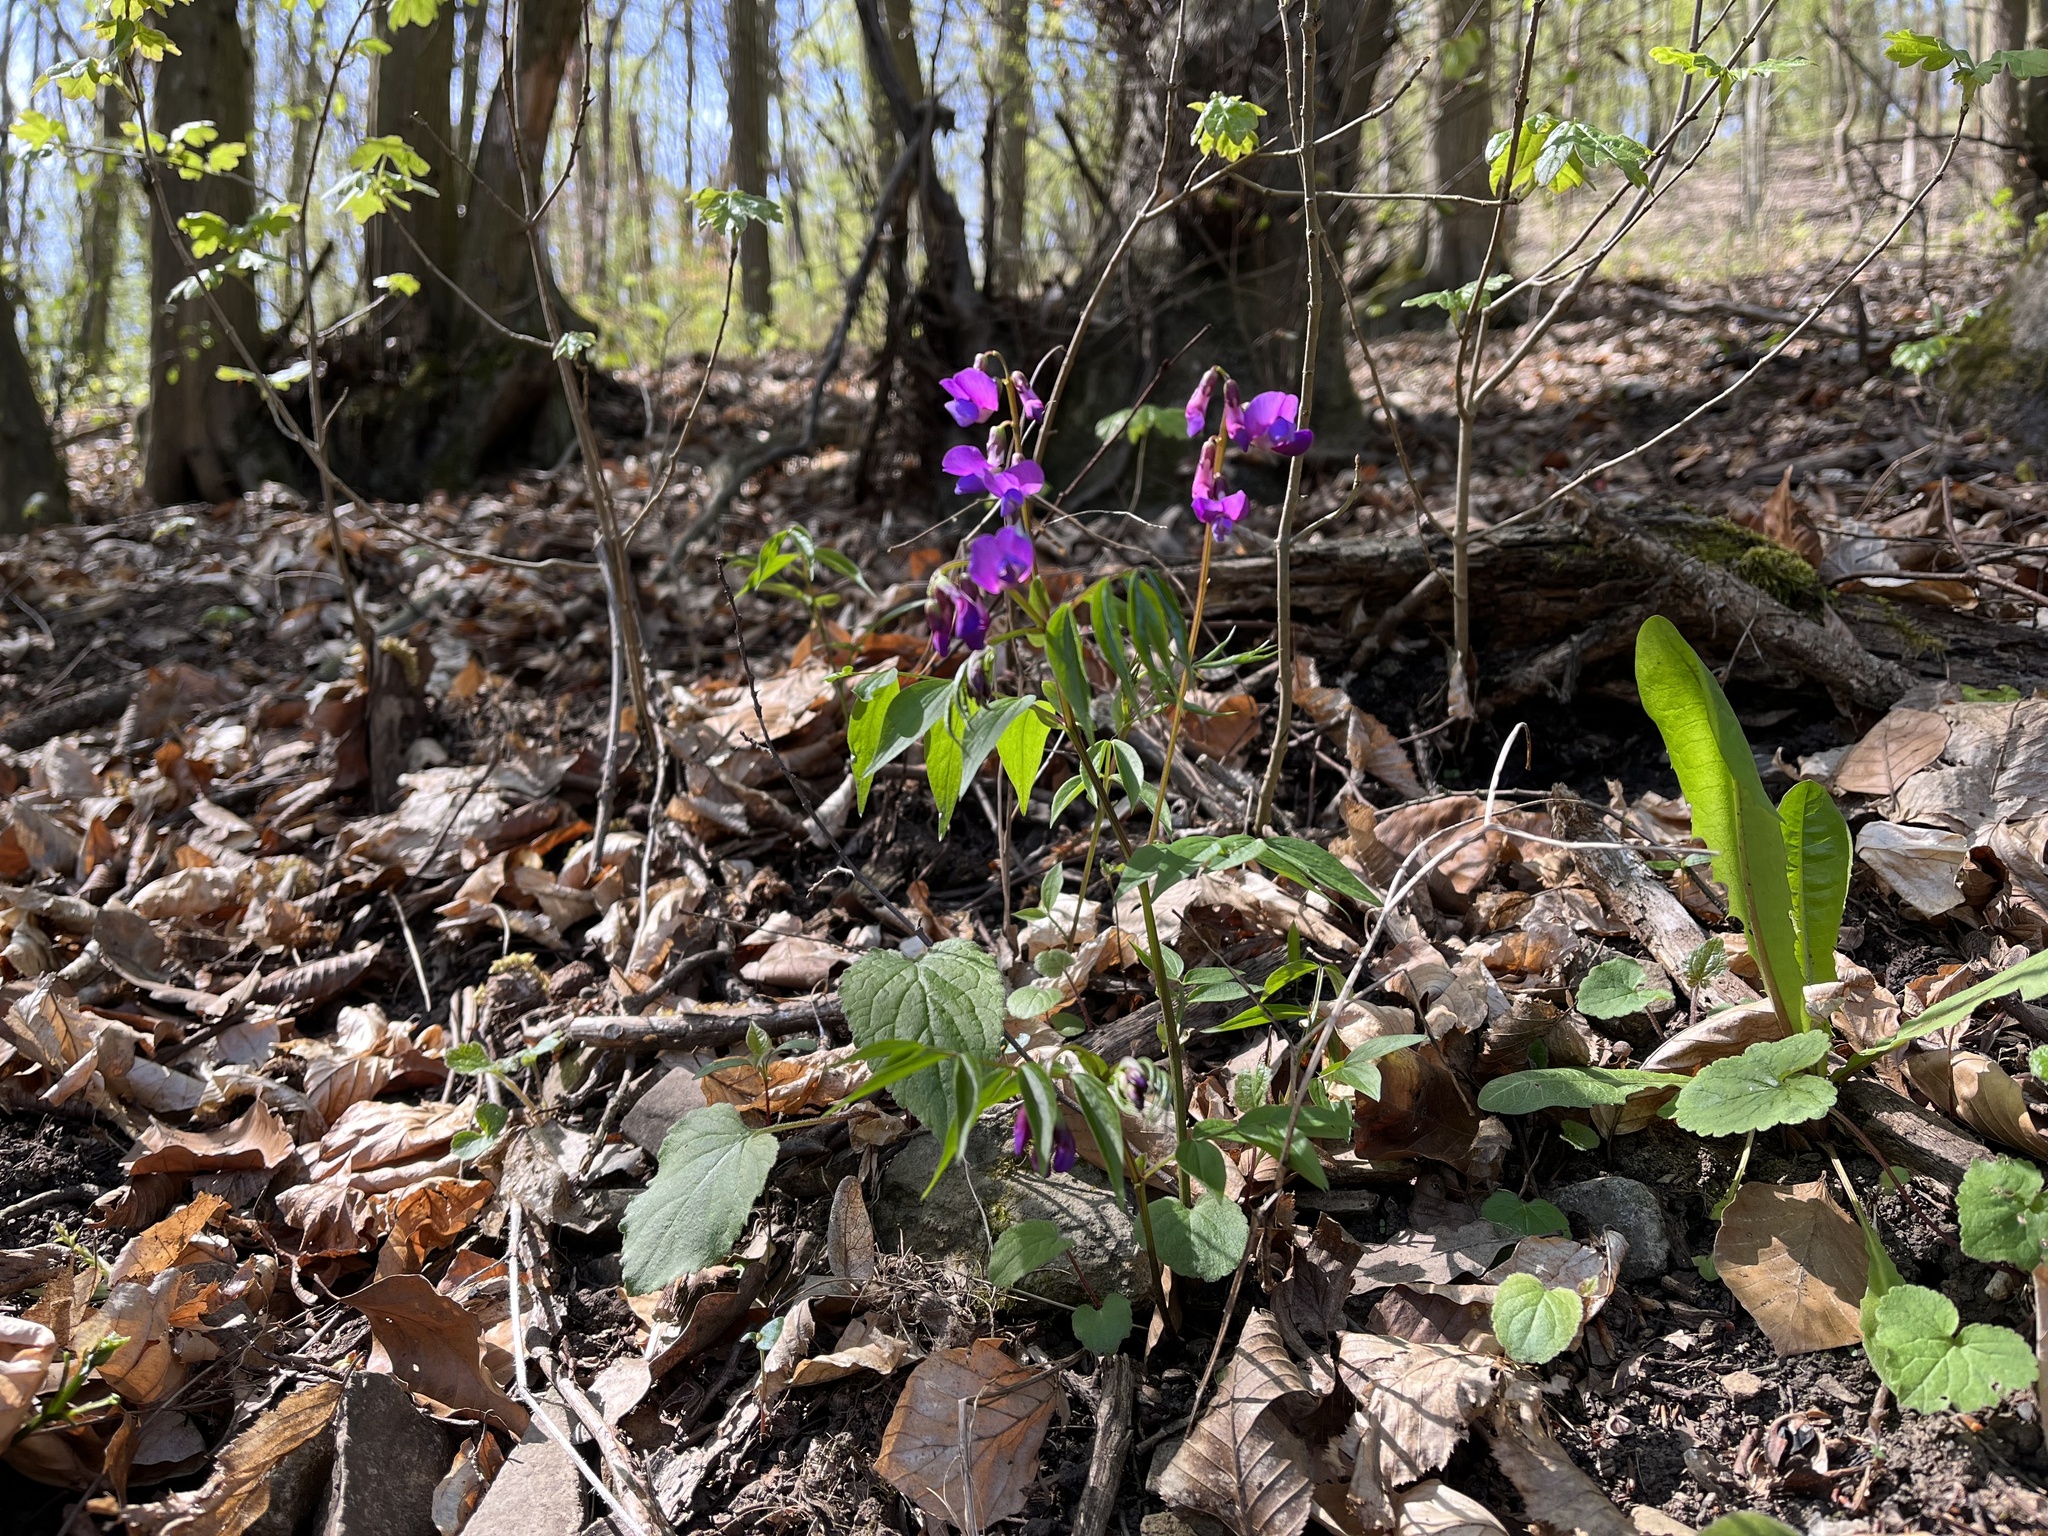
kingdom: Plantae
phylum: Tracheophyta
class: Magnoliopsida
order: Fabales
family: Fabaceae
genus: Lathyrus
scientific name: Lathyrus vernus
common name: Spring pea
